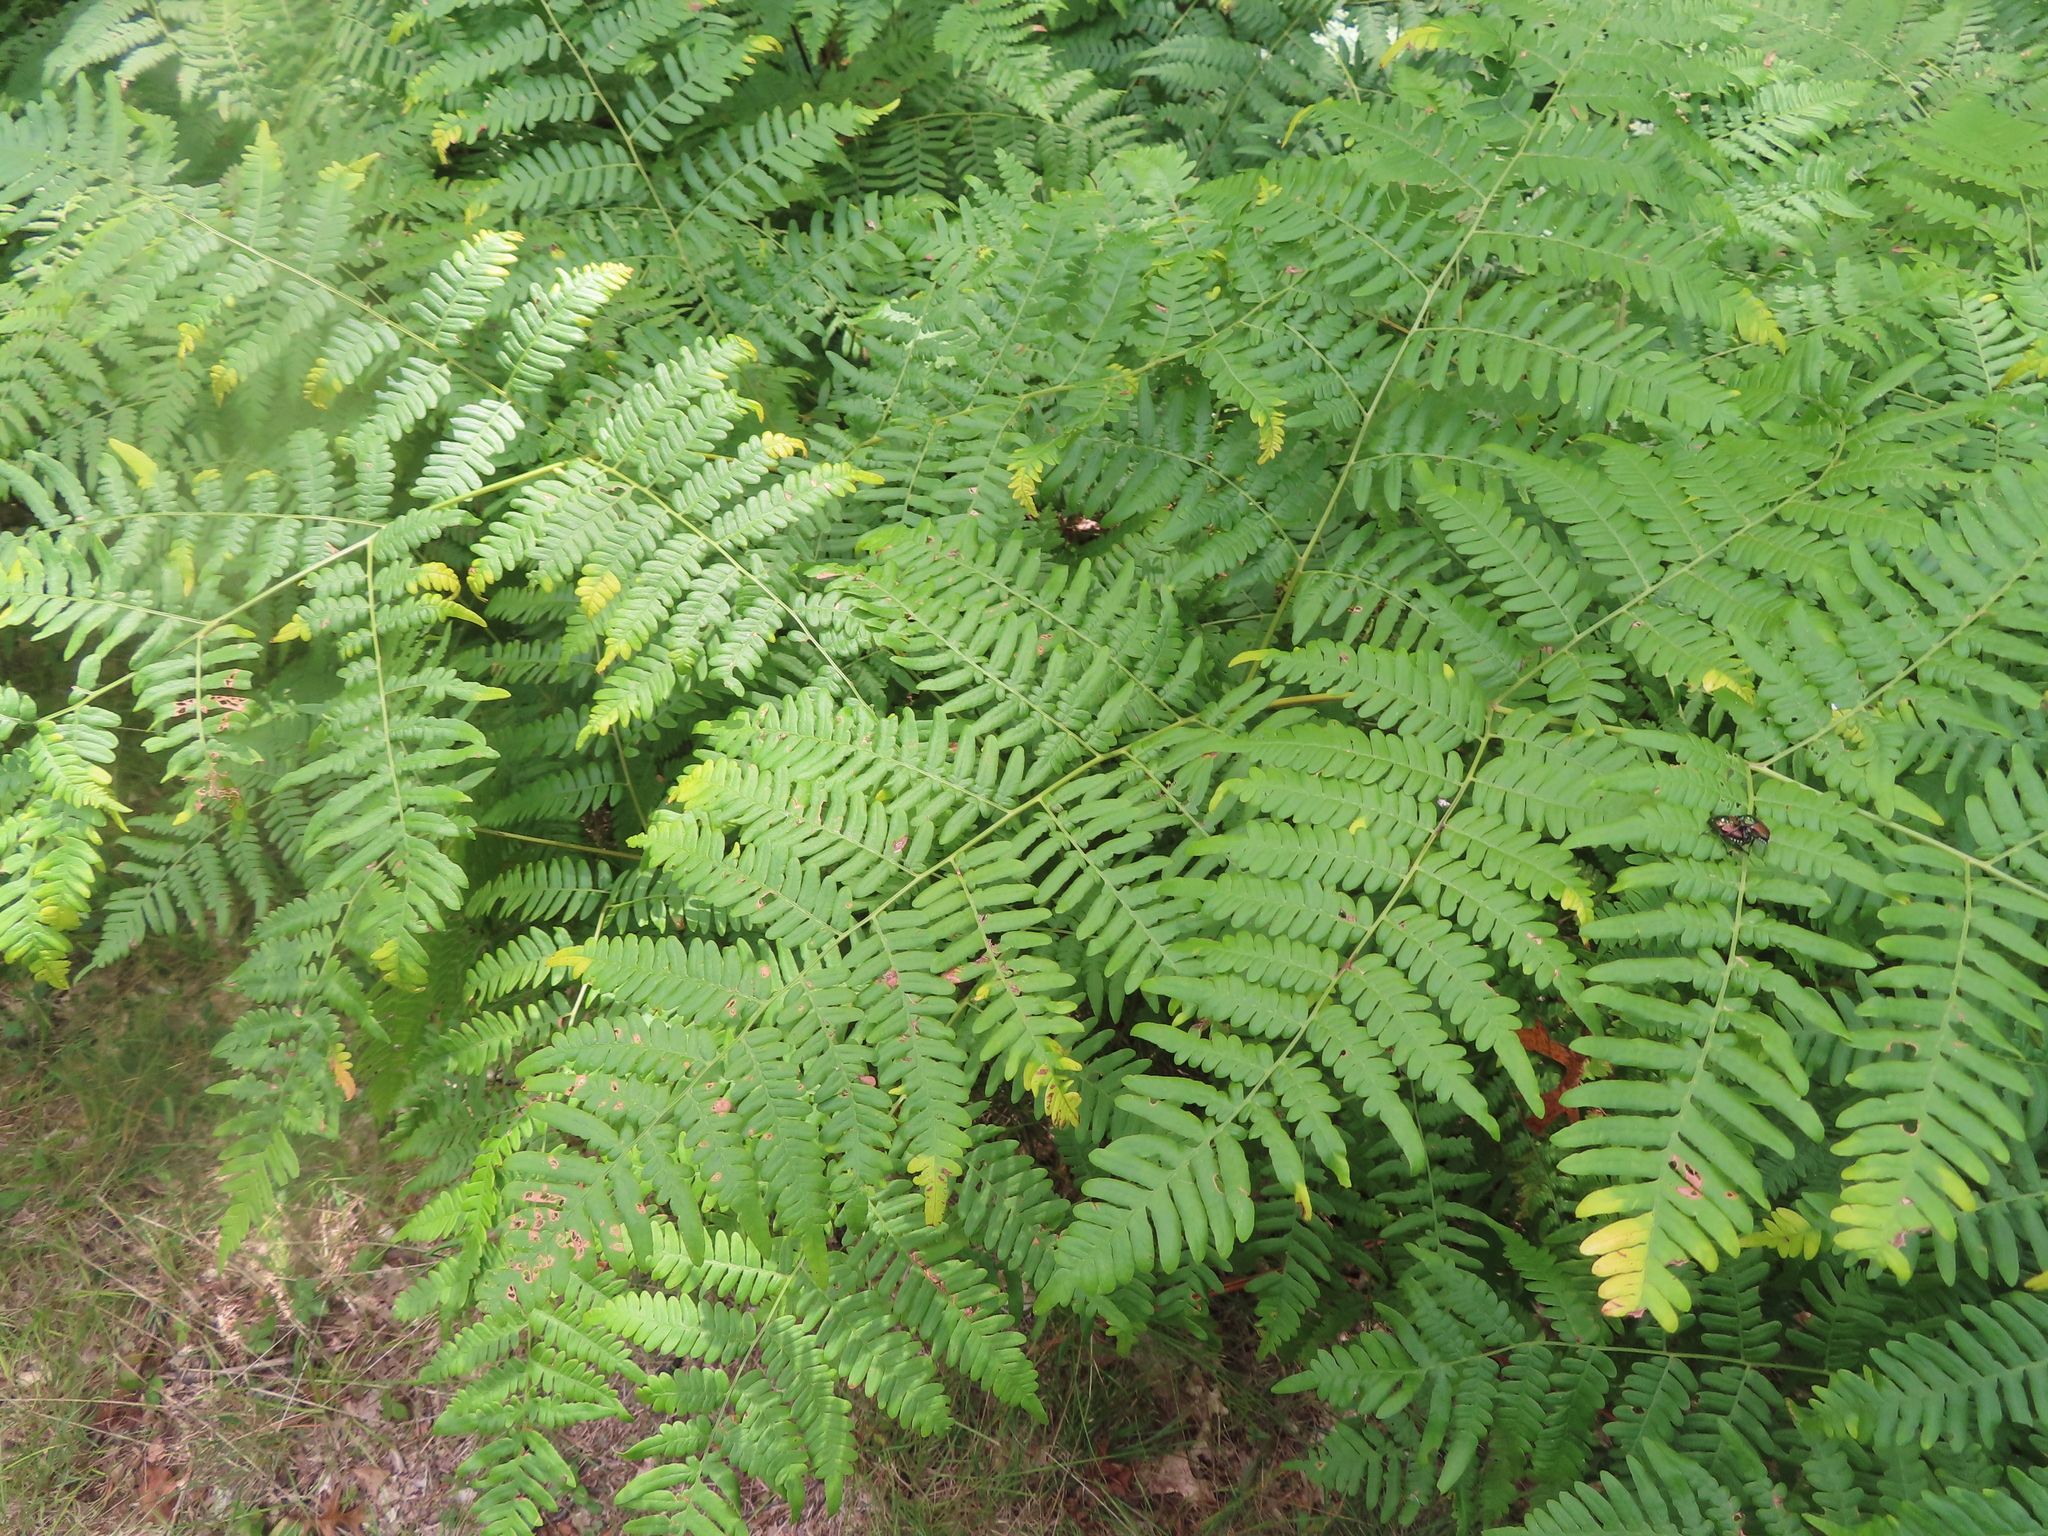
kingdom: Plantae
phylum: Tracheophyta
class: Polypodiopsida
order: Polypodiales
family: Dennstaedtiaceae
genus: Pteridium
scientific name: Pteridium aquilinum
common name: Bracken
